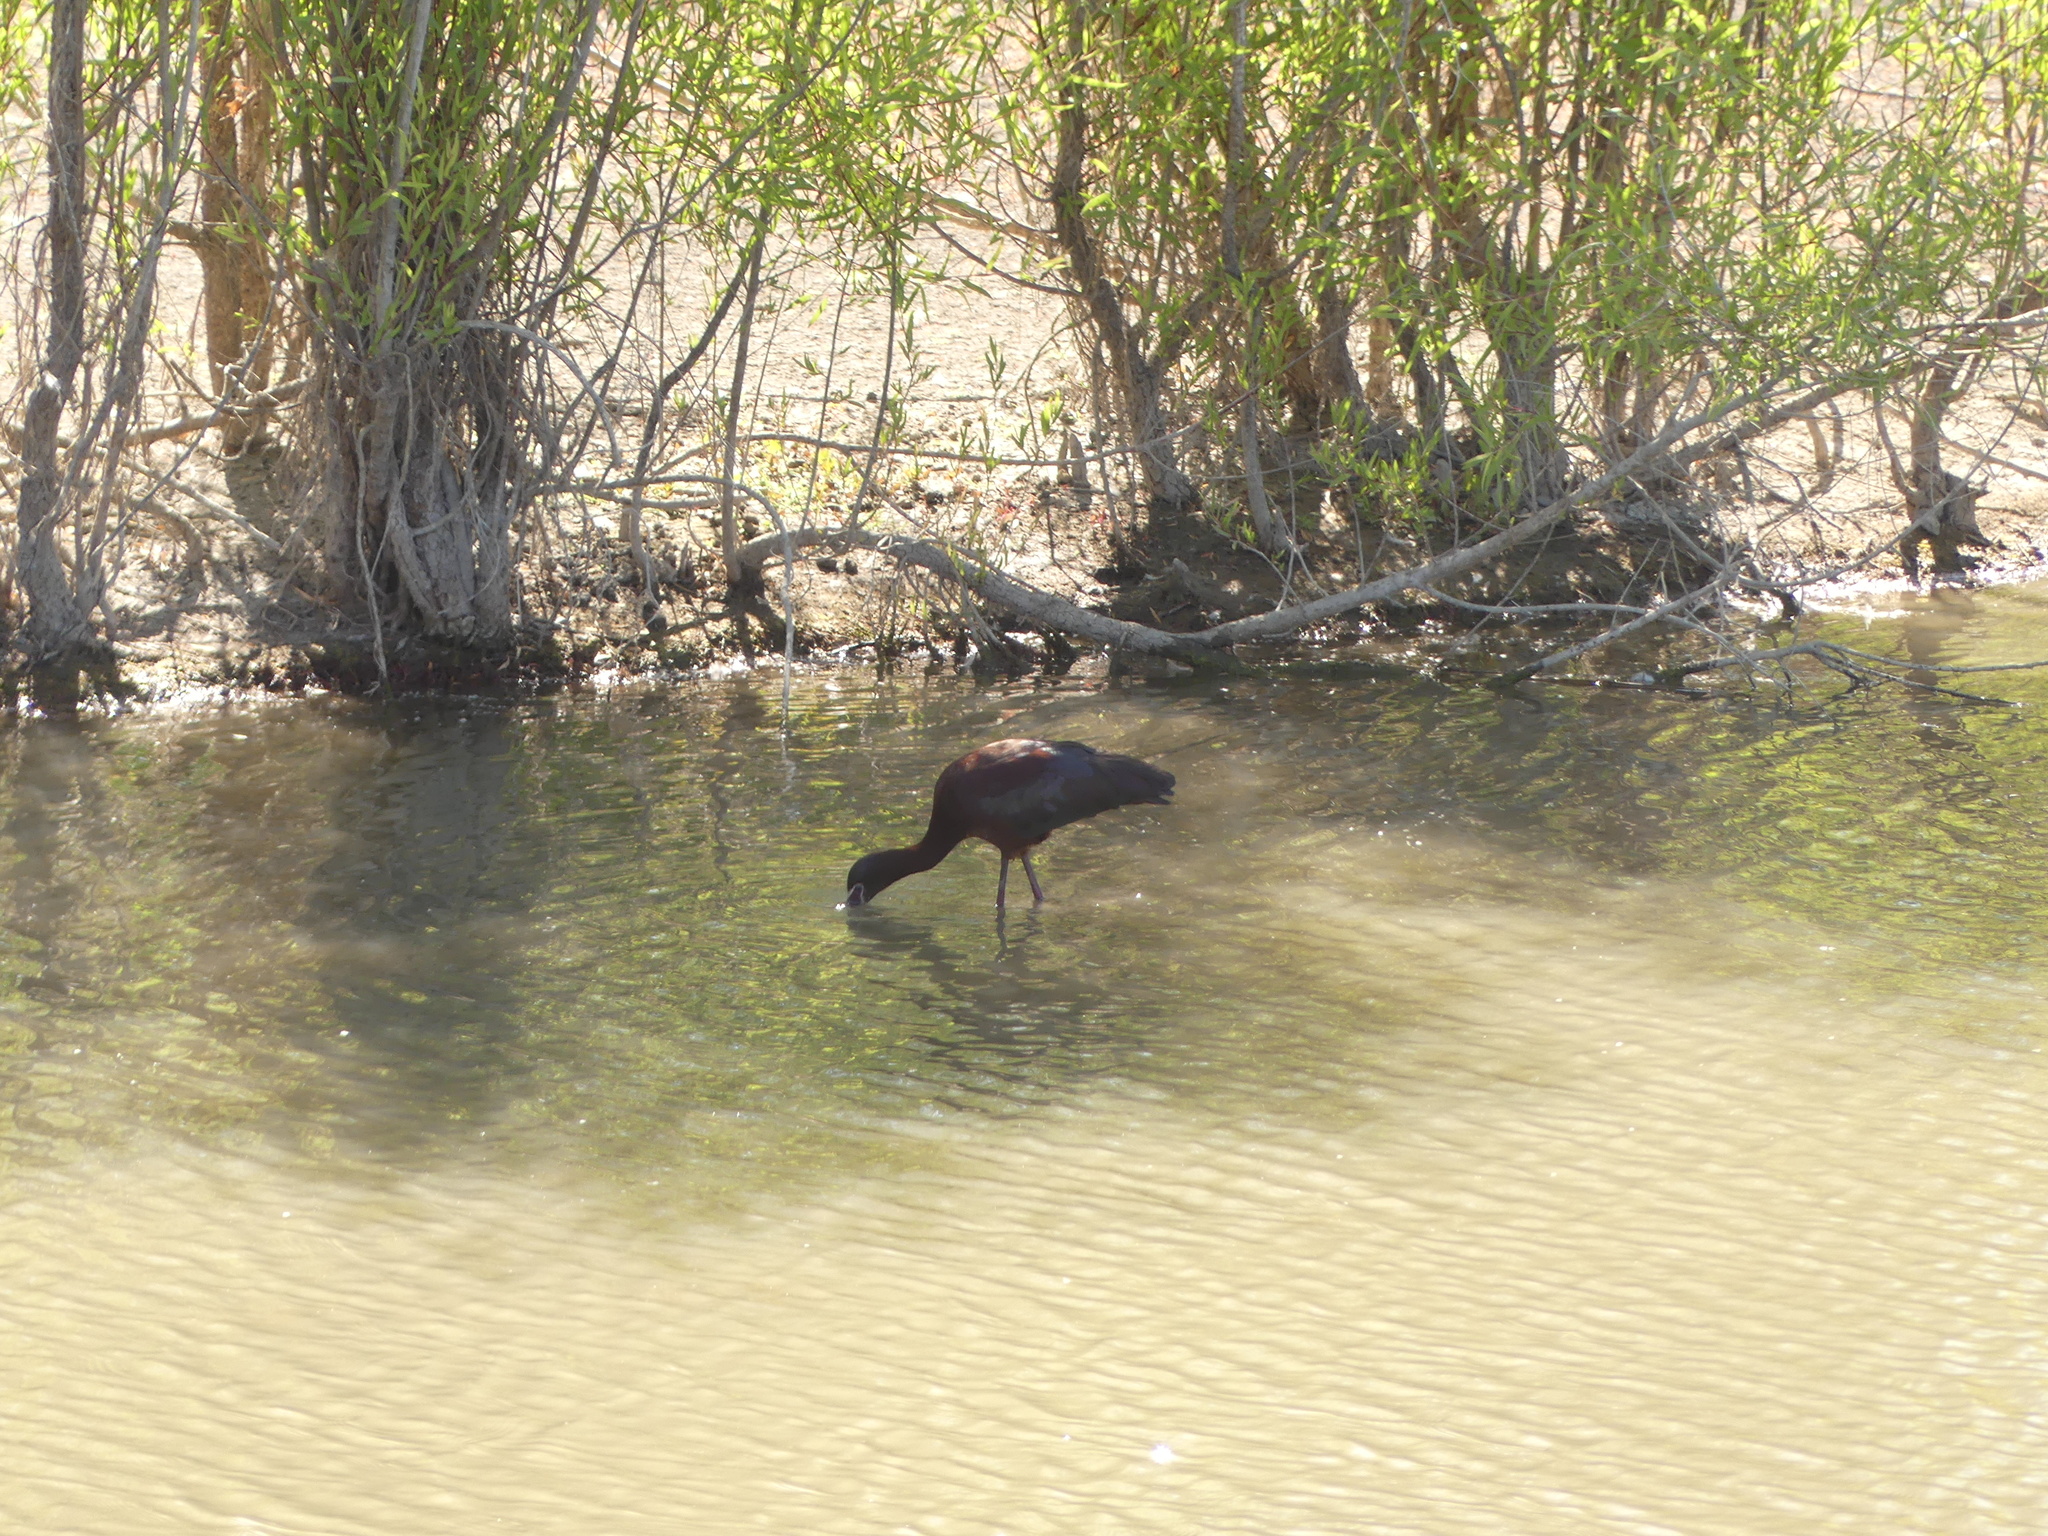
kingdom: Animalia
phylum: Chordata
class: Aves
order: Pelecaniformes
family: Threskiornithidae
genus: Plegadis
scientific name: Plegadis chihi
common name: White-faced ibis
